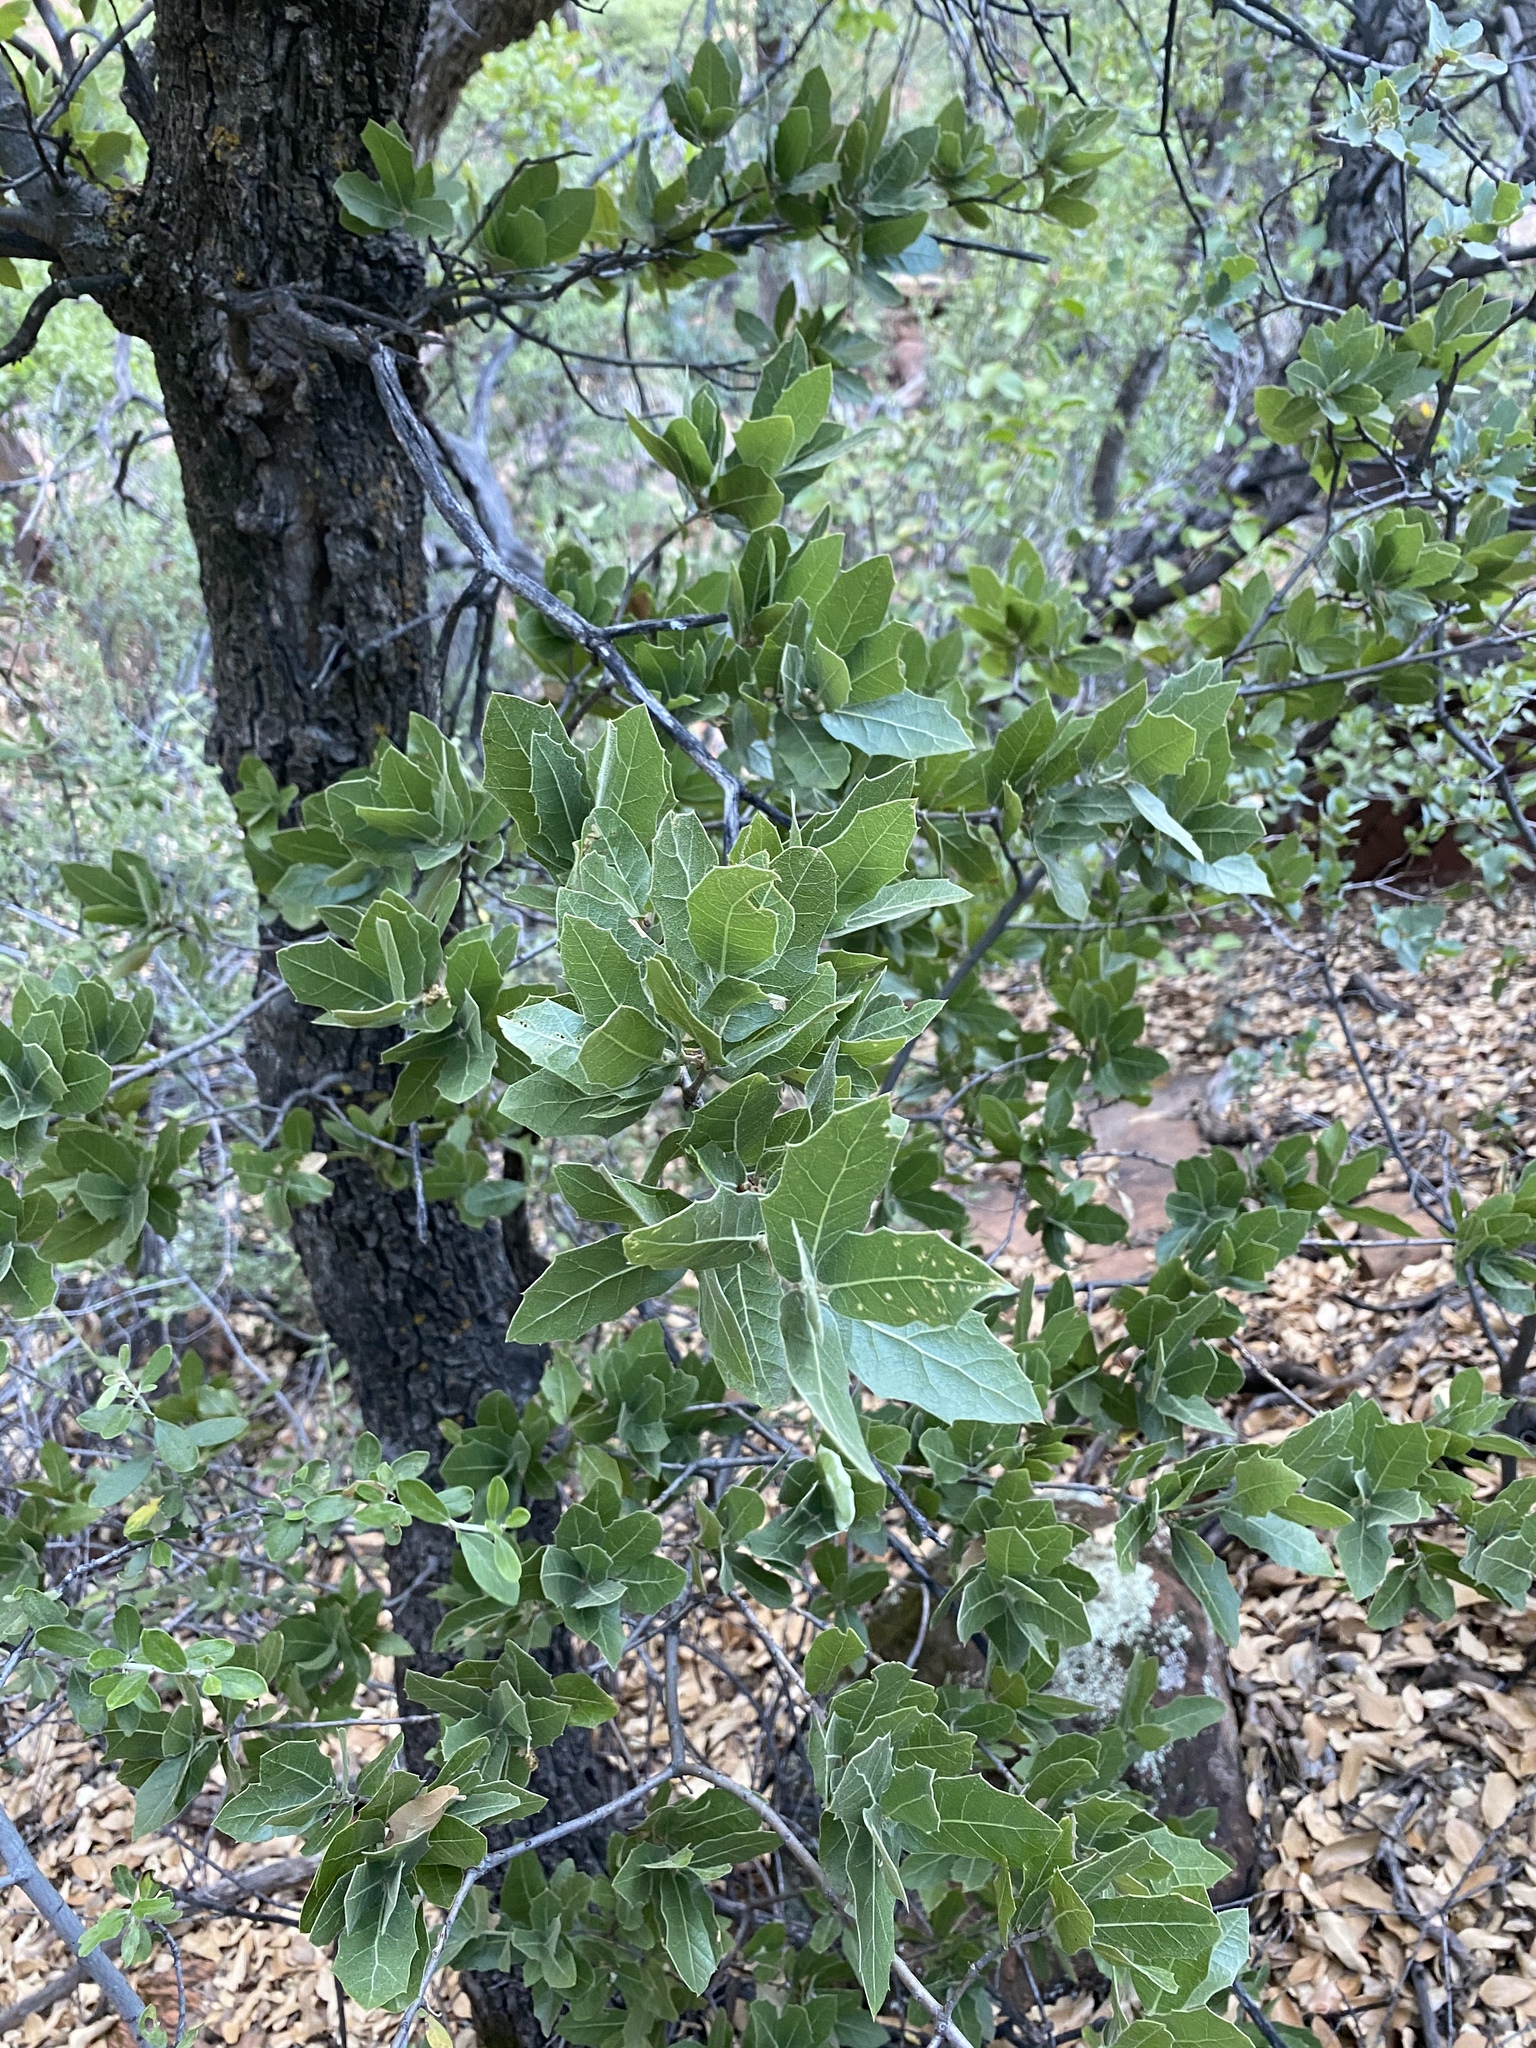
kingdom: Plantae
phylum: Tracheophyta
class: Magnoliopsida
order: Fagales
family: Fagaceae
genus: Quercus
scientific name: Quercus emoryi
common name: Emory oak
